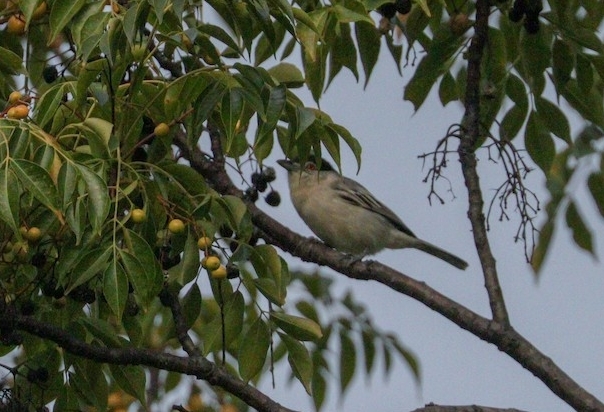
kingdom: Animalia
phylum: Chordata
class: Aves
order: Passeriformes
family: Malaconotidae
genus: Dryoscopus
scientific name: Dryoscopus cubla
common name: Black-backed puffback
